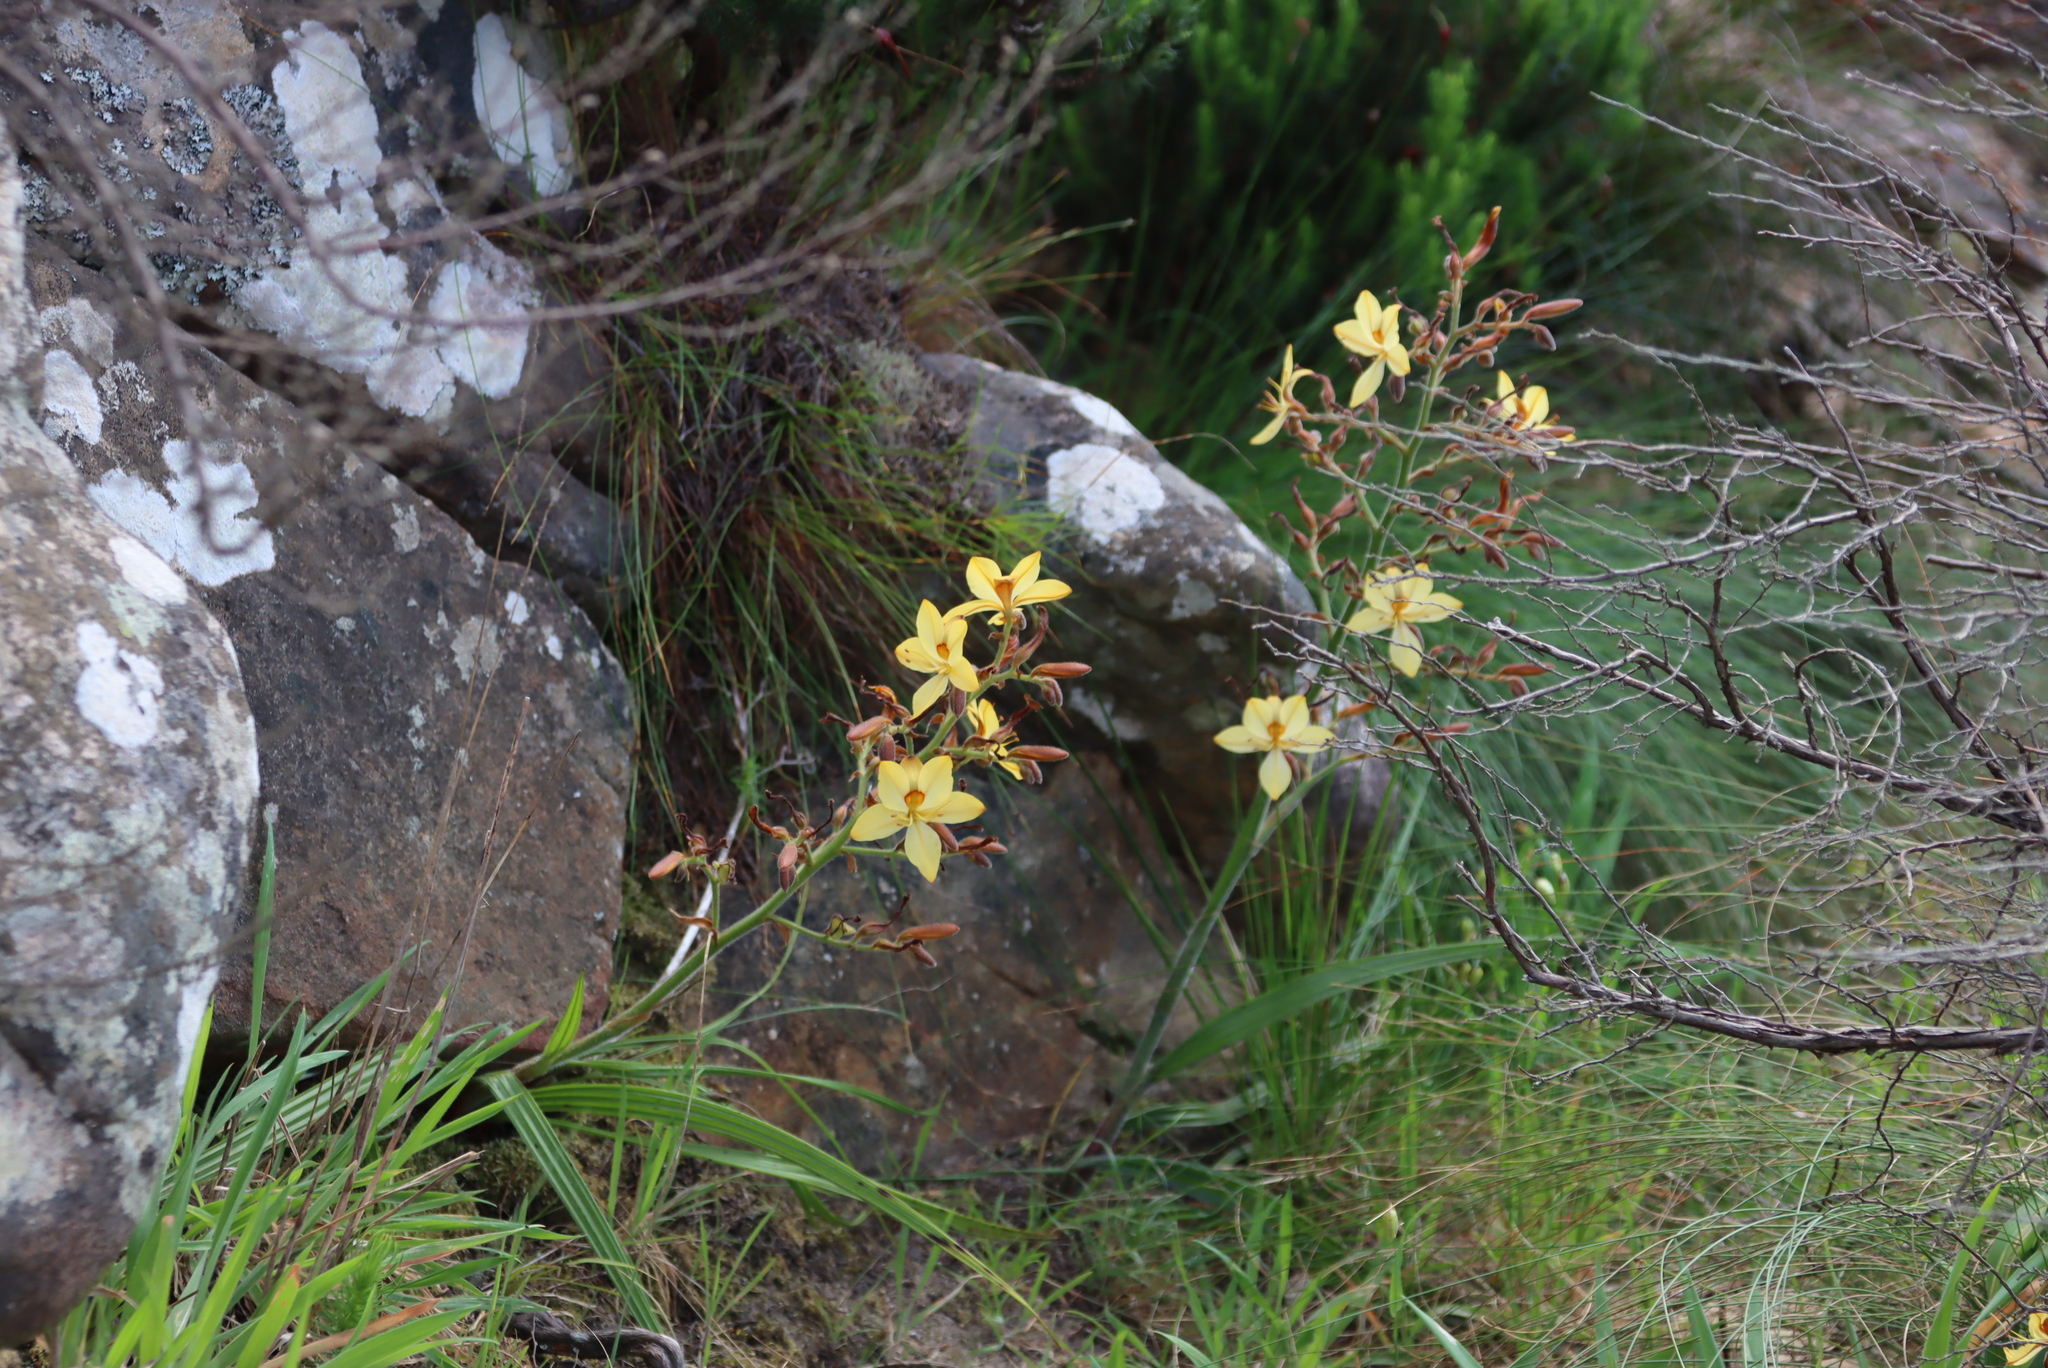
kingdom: Plantae
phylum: Tracheophyta
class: Liliopsida
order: Commelinales
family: Haemodoraceae
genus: Wachendorfia
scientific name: Wachendorfia paniculata
